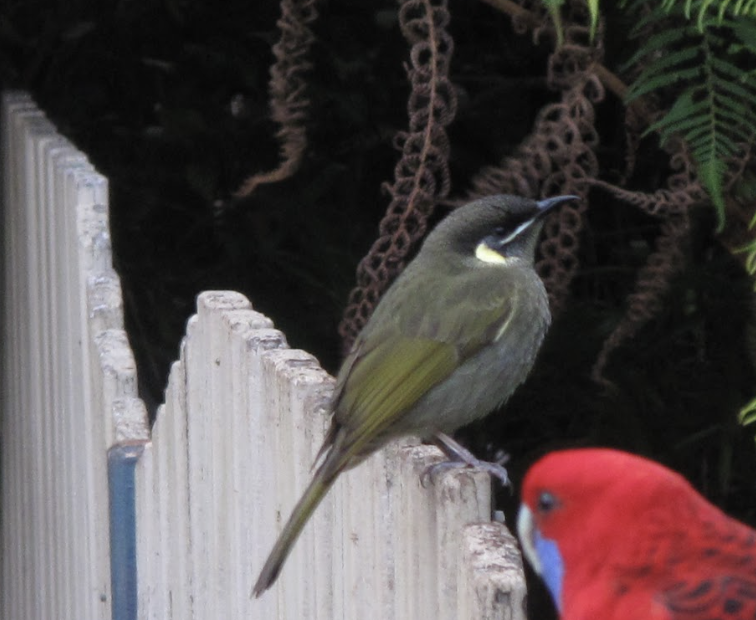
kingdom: Animalia
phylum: Chordata
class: Aves
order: Passeriformes
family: Meliphagidae
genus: Meliphaga
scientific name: Meliphaga lewinii
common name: Lewin's honeyeater
